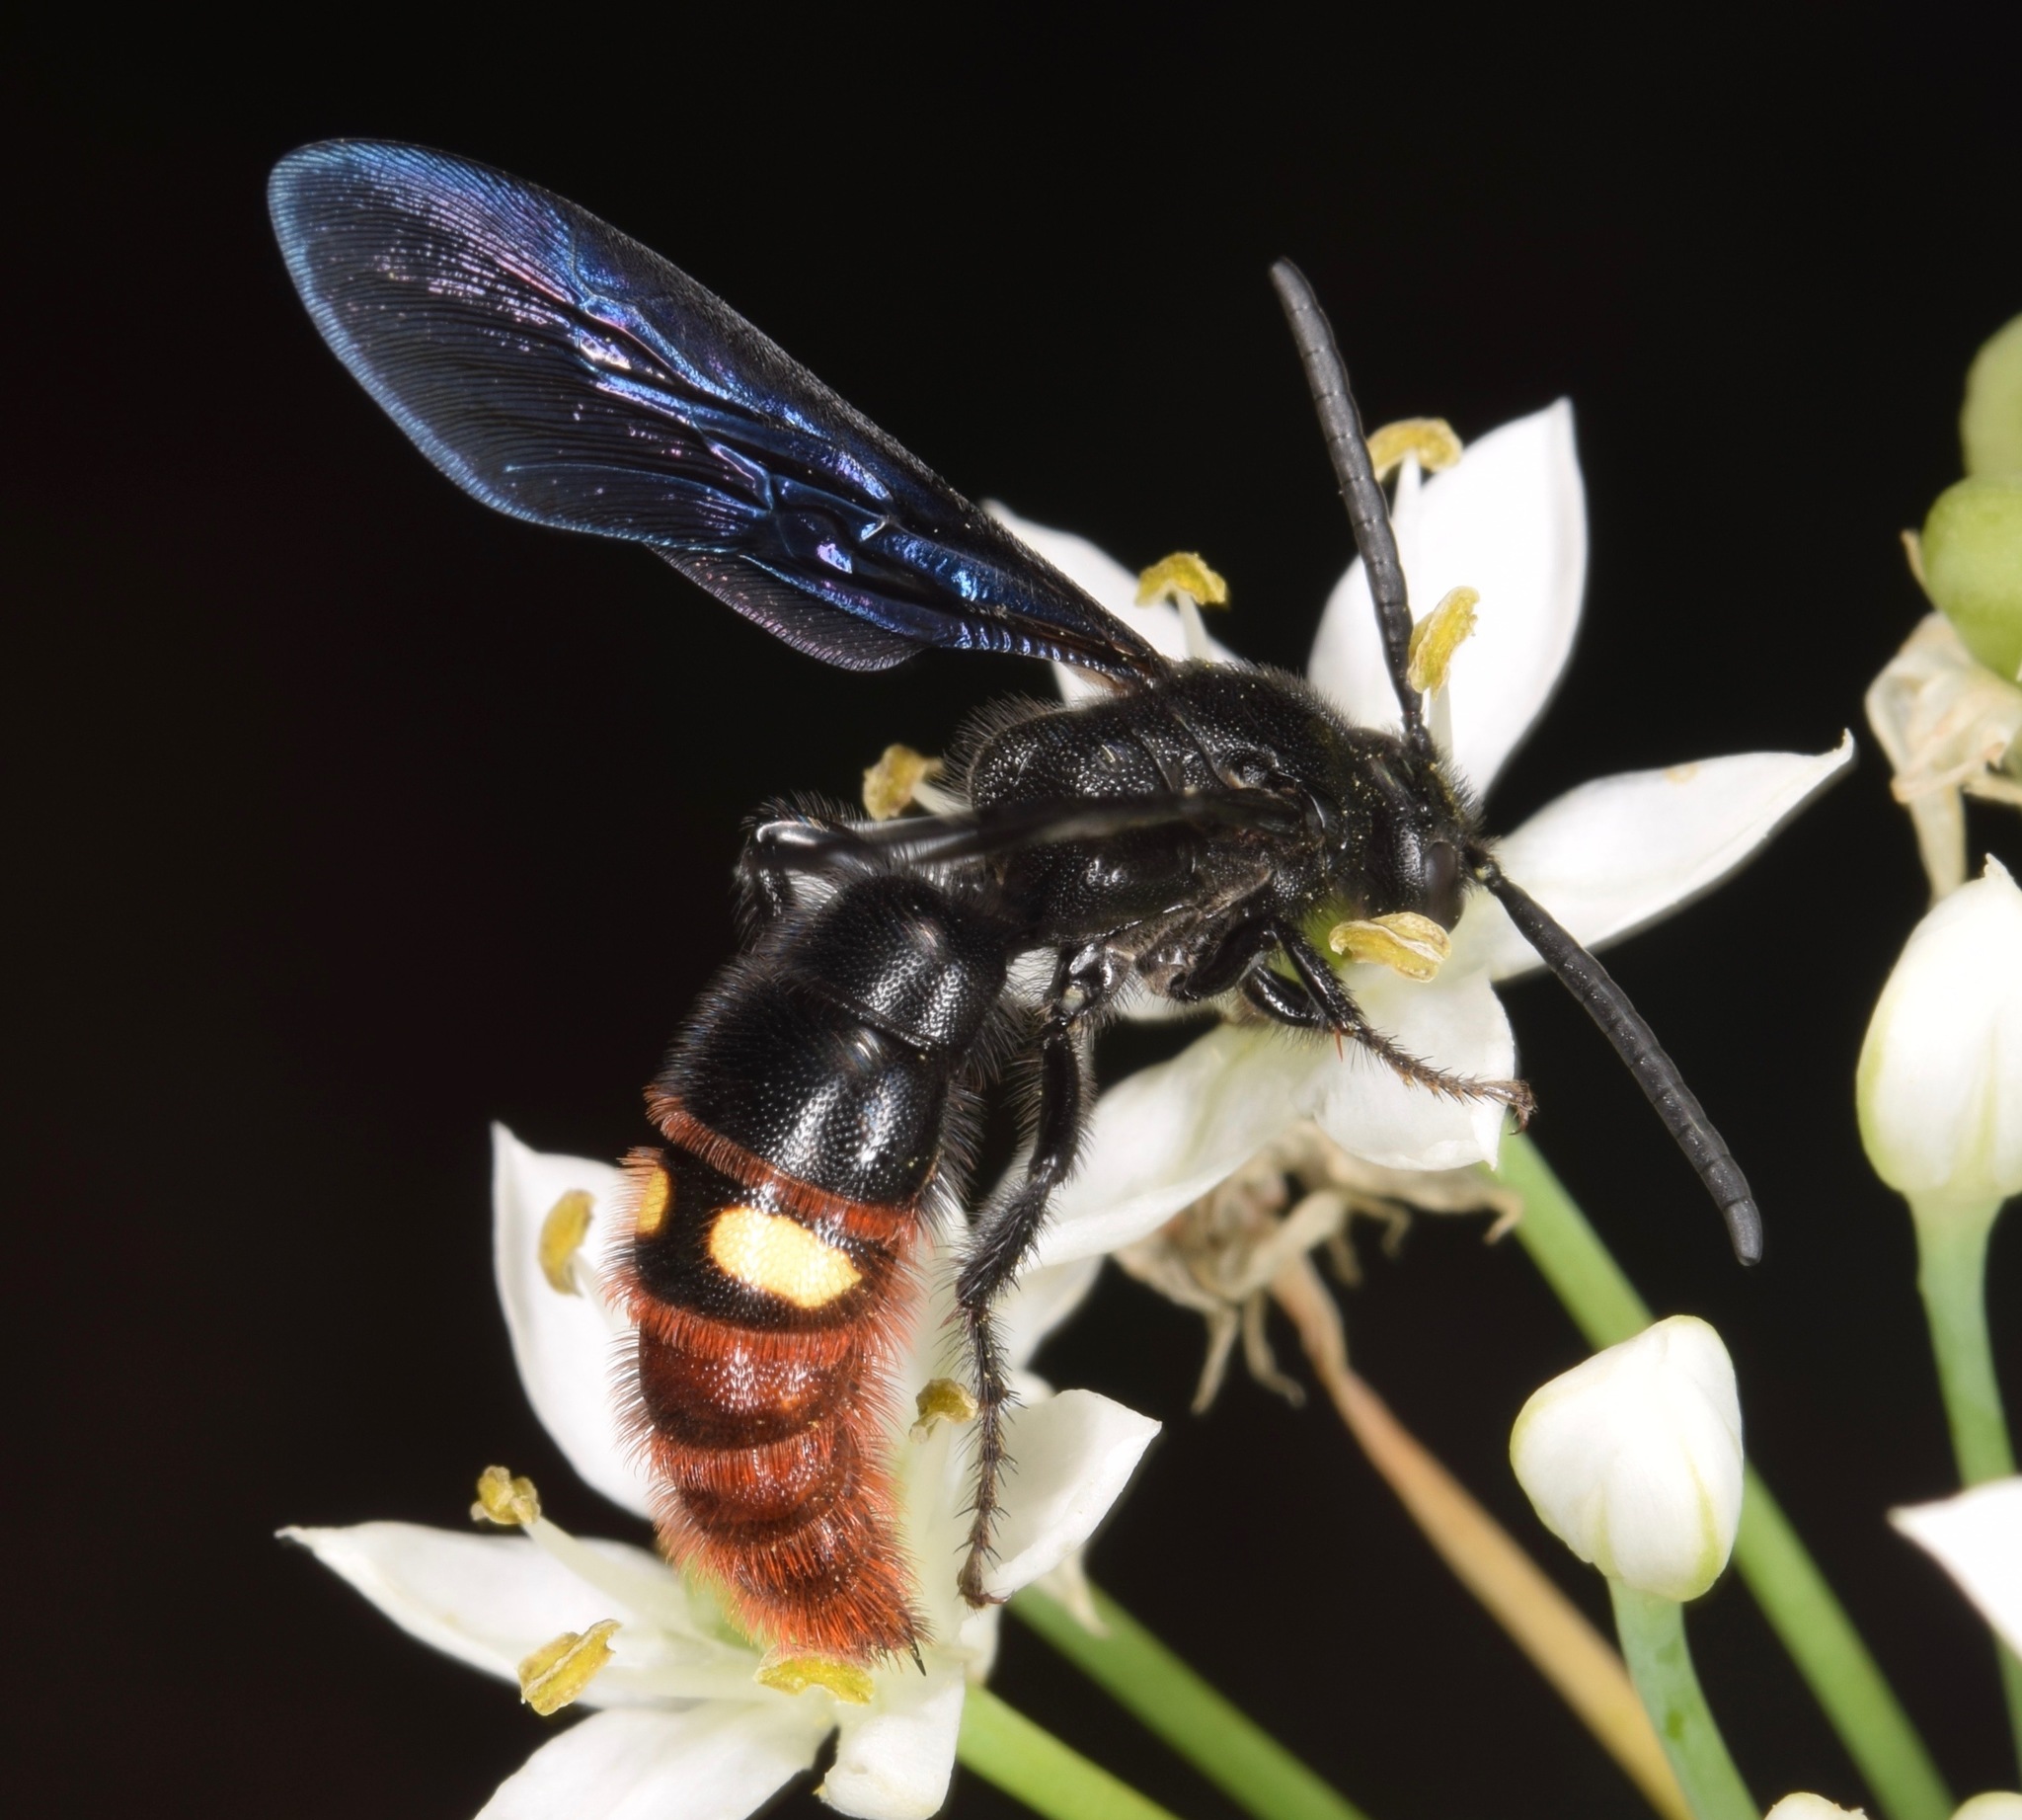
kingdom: Animalia
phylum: Arthropoda
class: Insecta
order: Hymenoptera
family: Scoliidae
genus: Scolia
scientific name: Scolia dubia
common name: Blue-winged scoliid wasp
